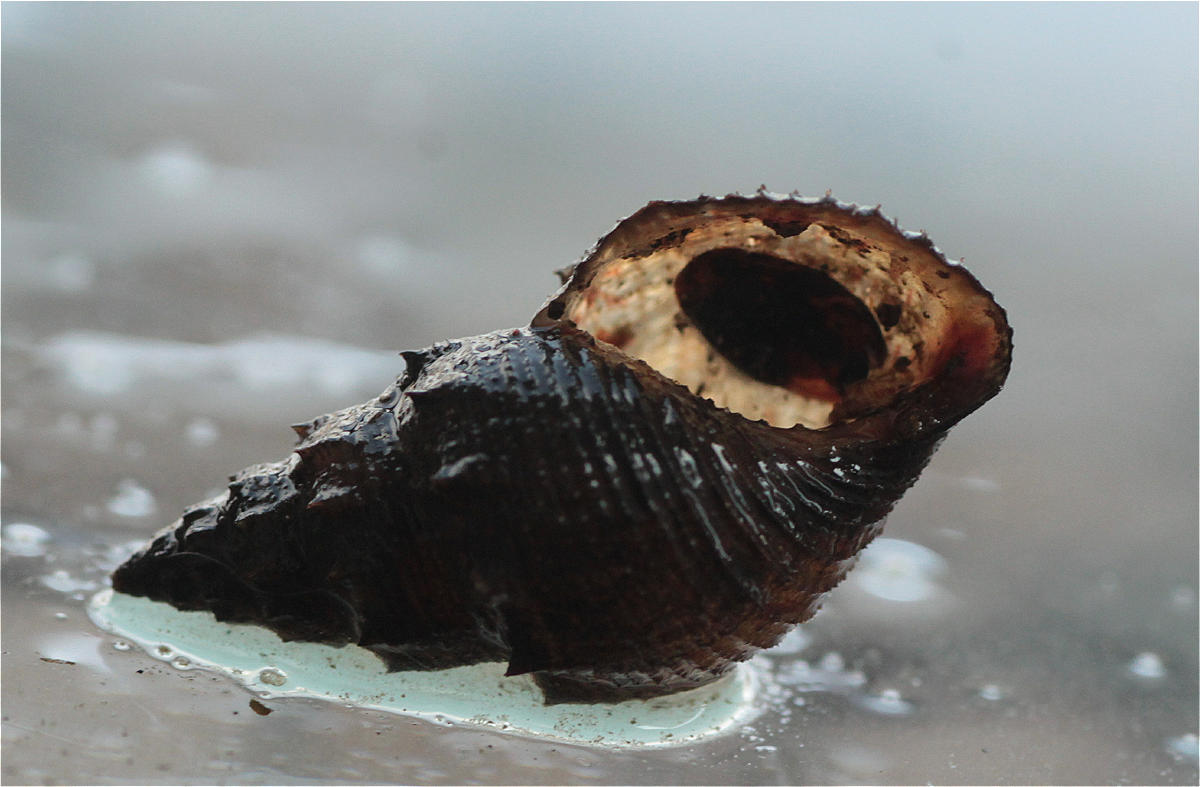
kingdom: Animalia
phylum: Mollusca
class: Gastropoda
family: Thiaridae
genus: Mieniplotia
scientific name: Mieniplotia scabra
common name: Prambanan snail
